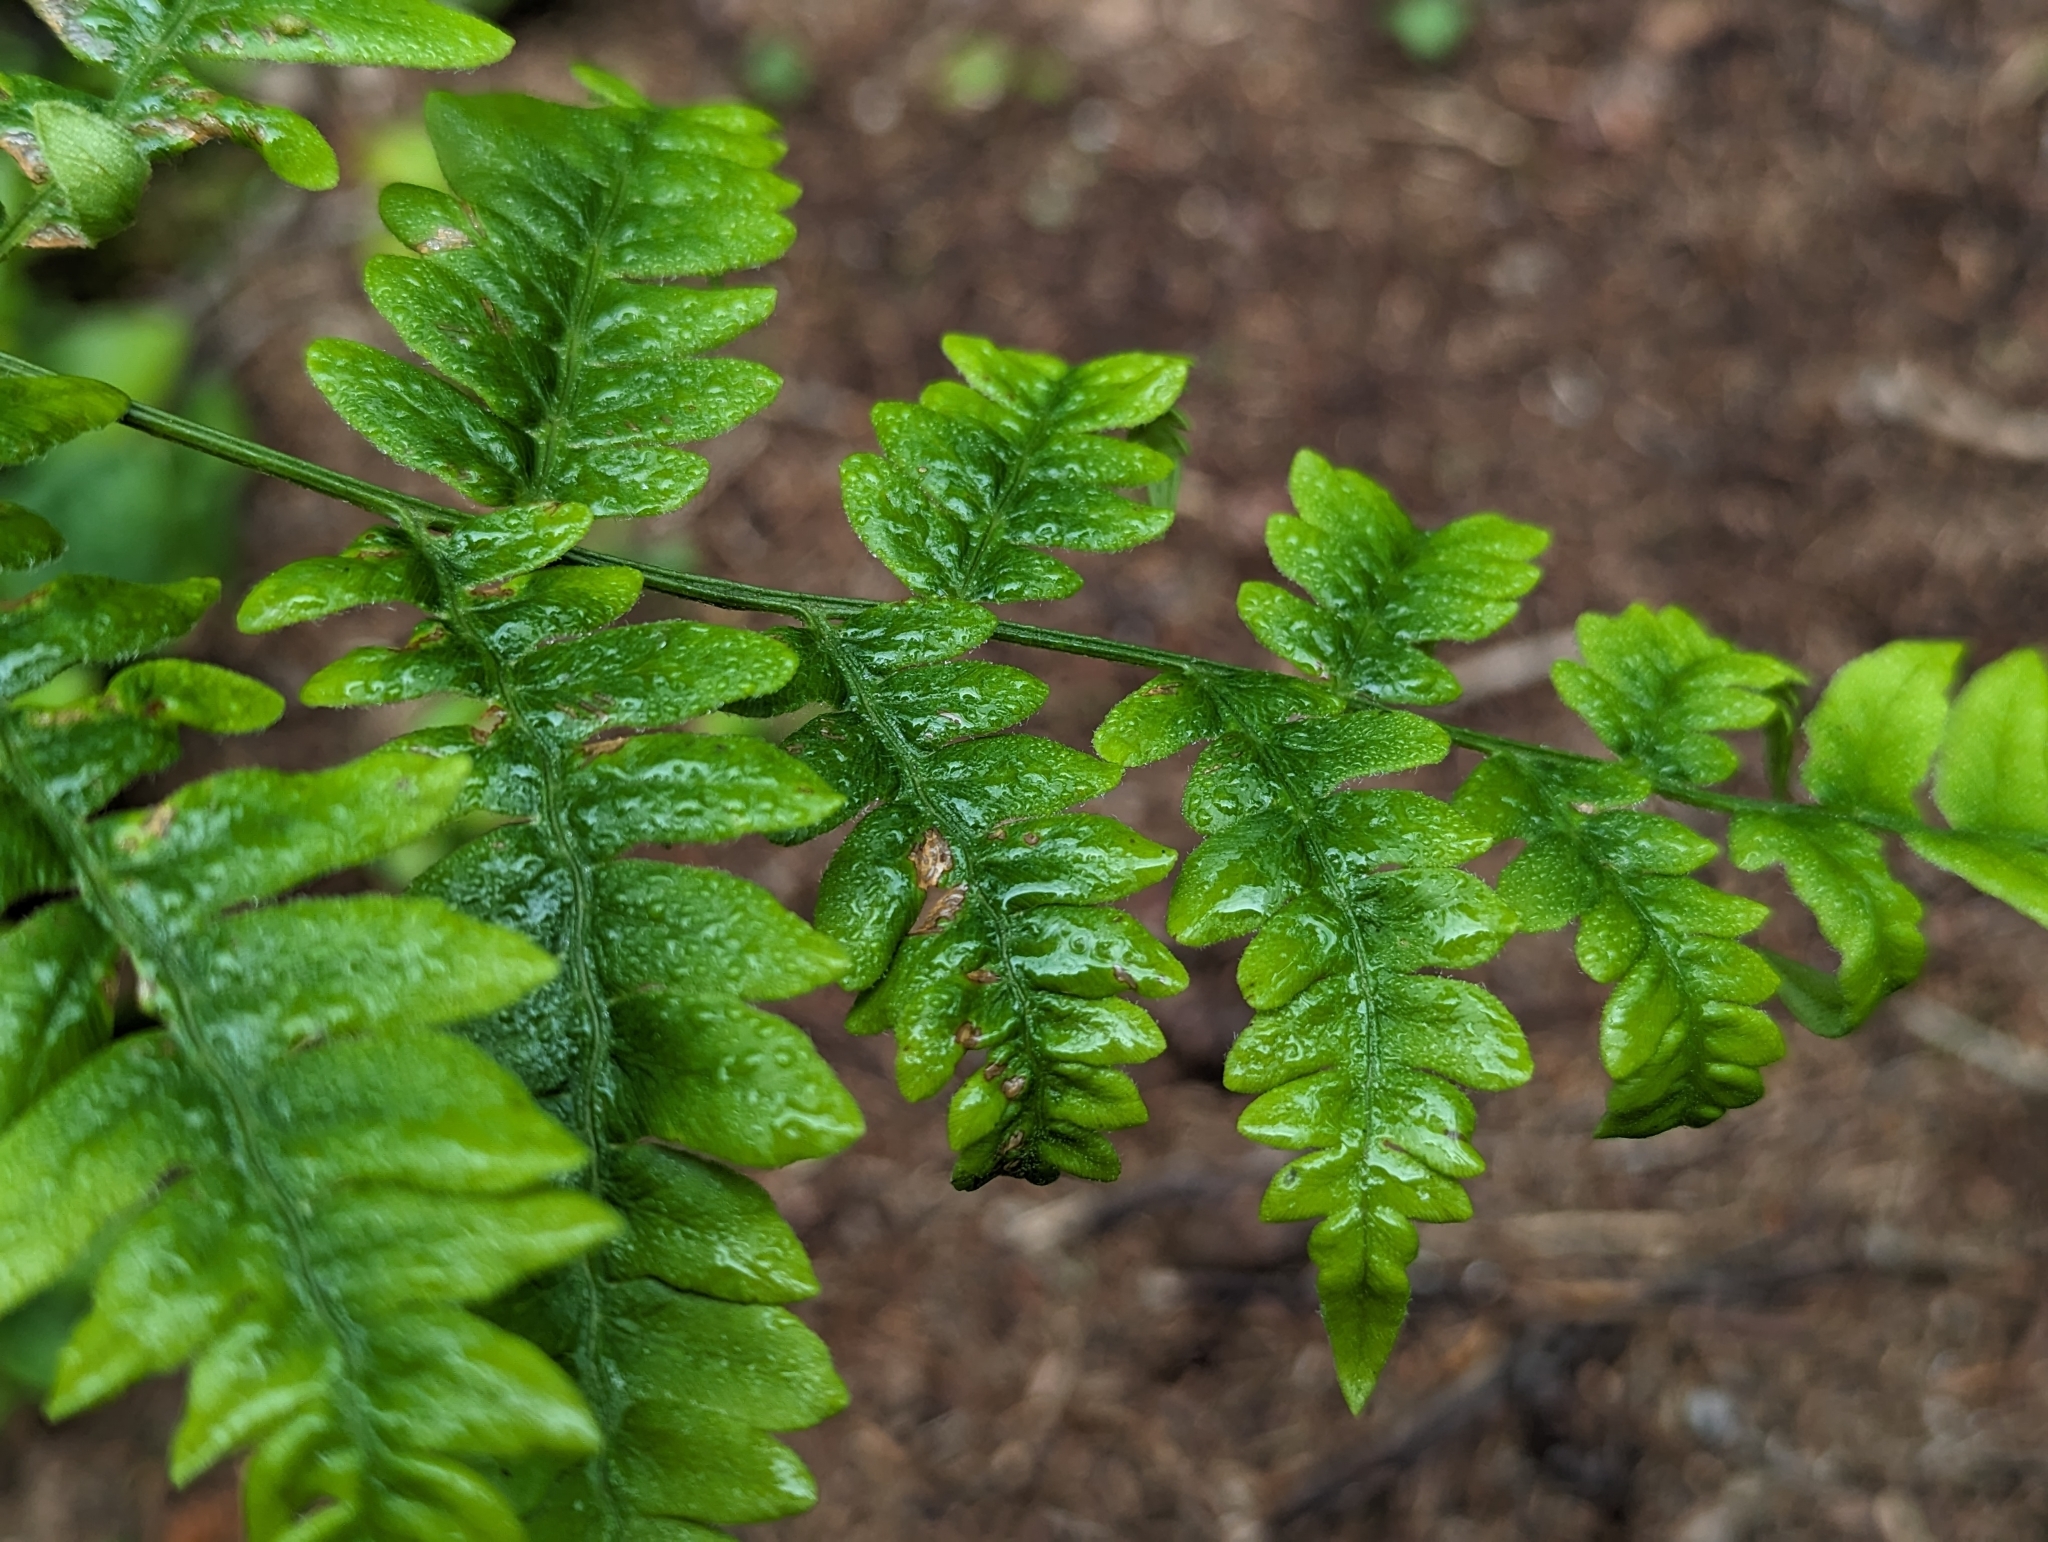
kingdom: Plantae
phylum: Tracheophyta
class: Polypodiopsida
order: Polypodiales
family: Dennstaedtiaceae
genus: Pteridium
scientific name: Pteridium aquilinum
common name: Bracken
